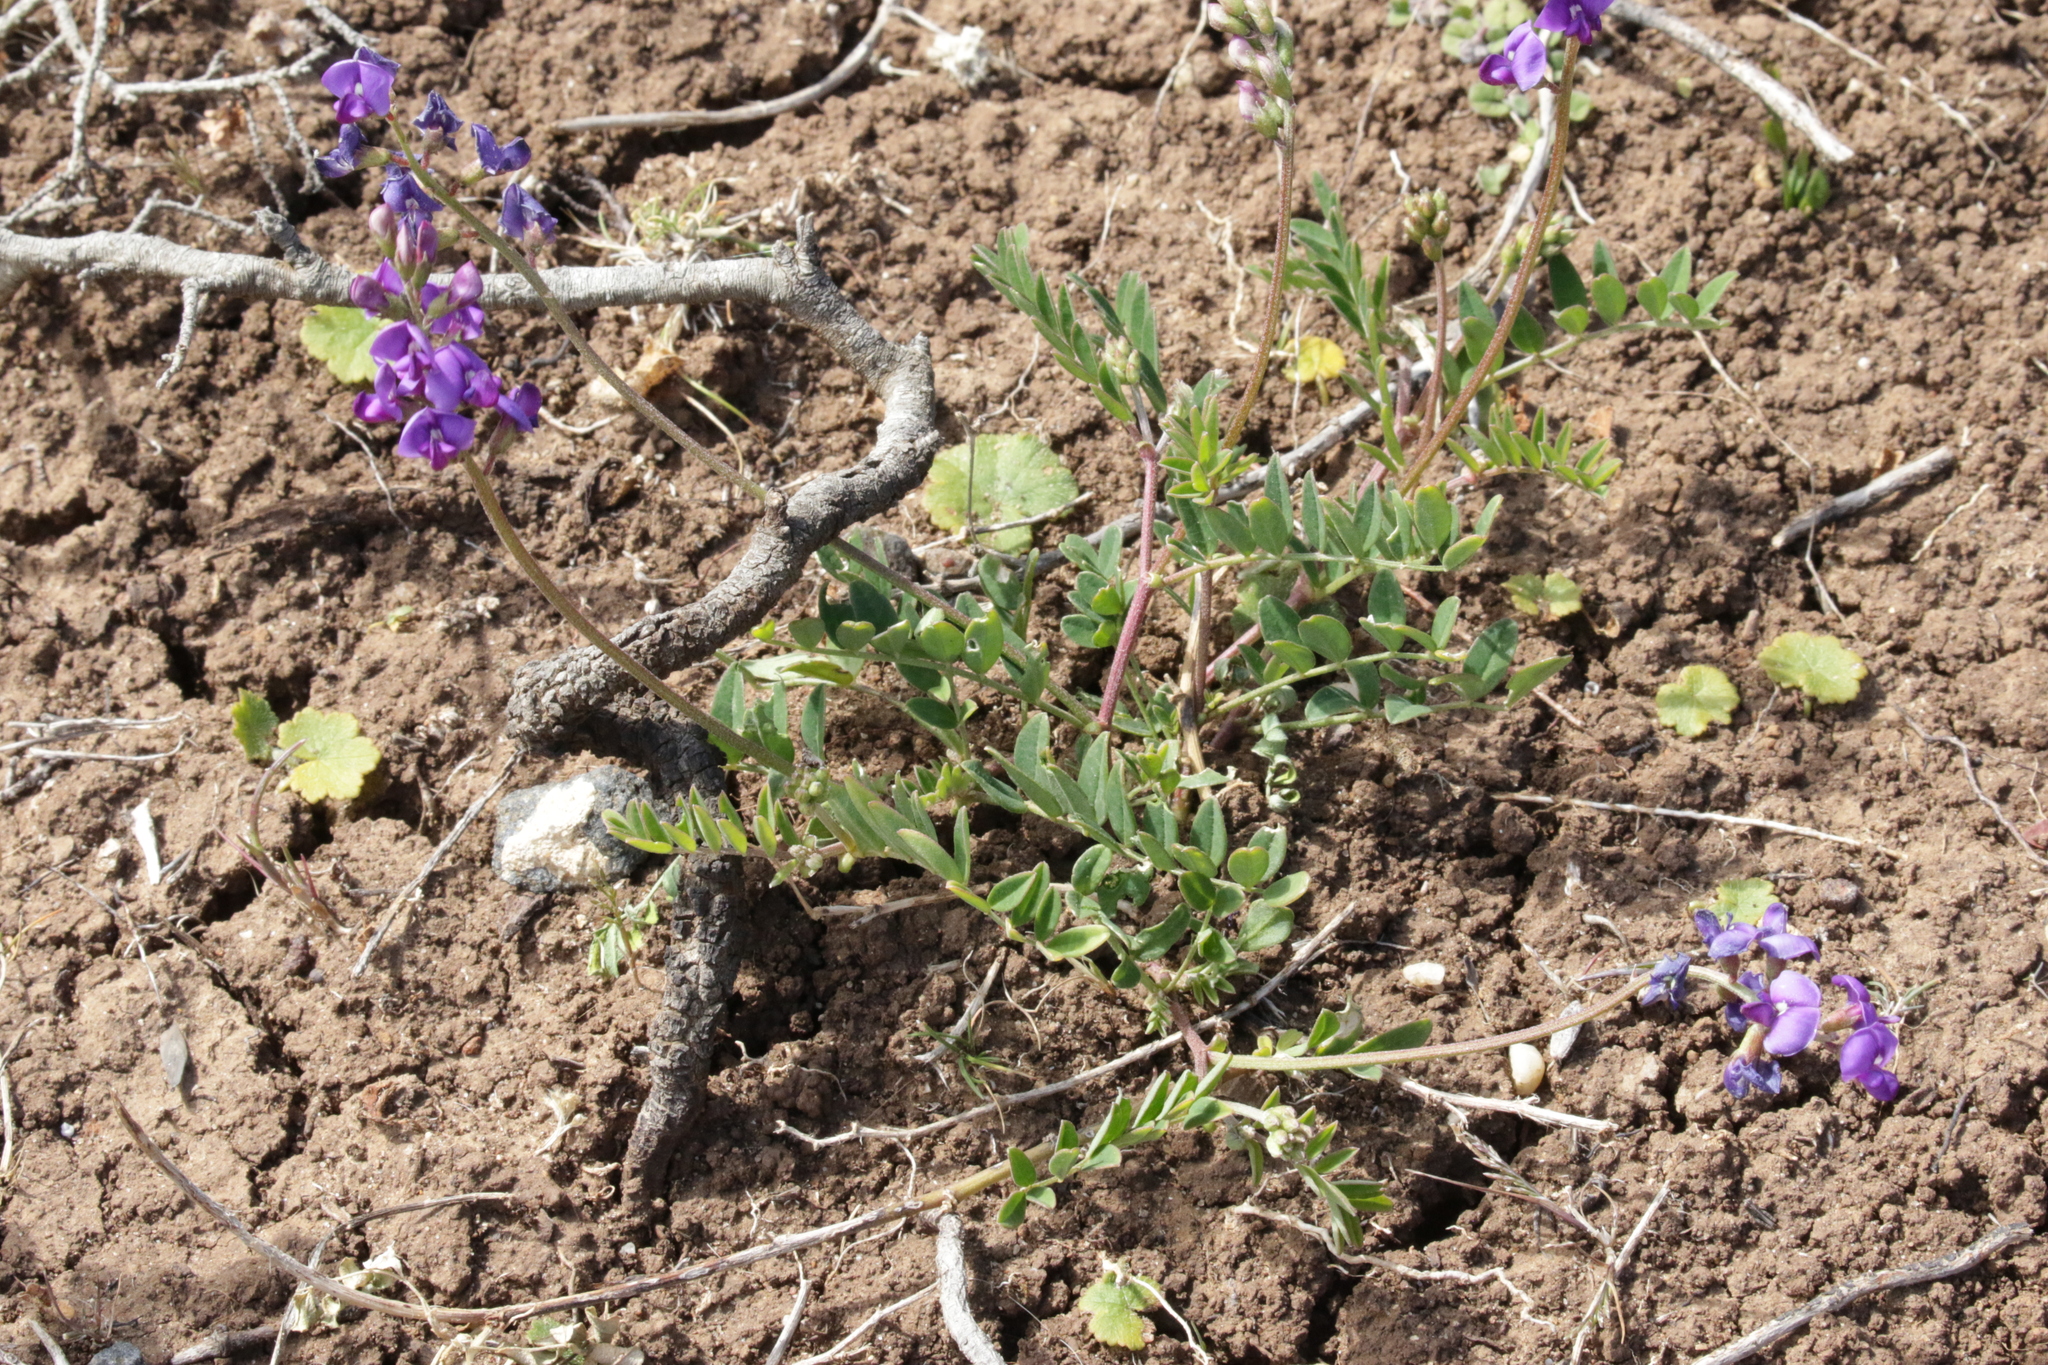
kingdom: Plantae
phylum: Tracheophyta
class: Magnoliopsida
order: Fabales
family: Fabaceae
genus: Swainsona
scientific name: Swainsona lessertiifolia
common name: Bog-pea
